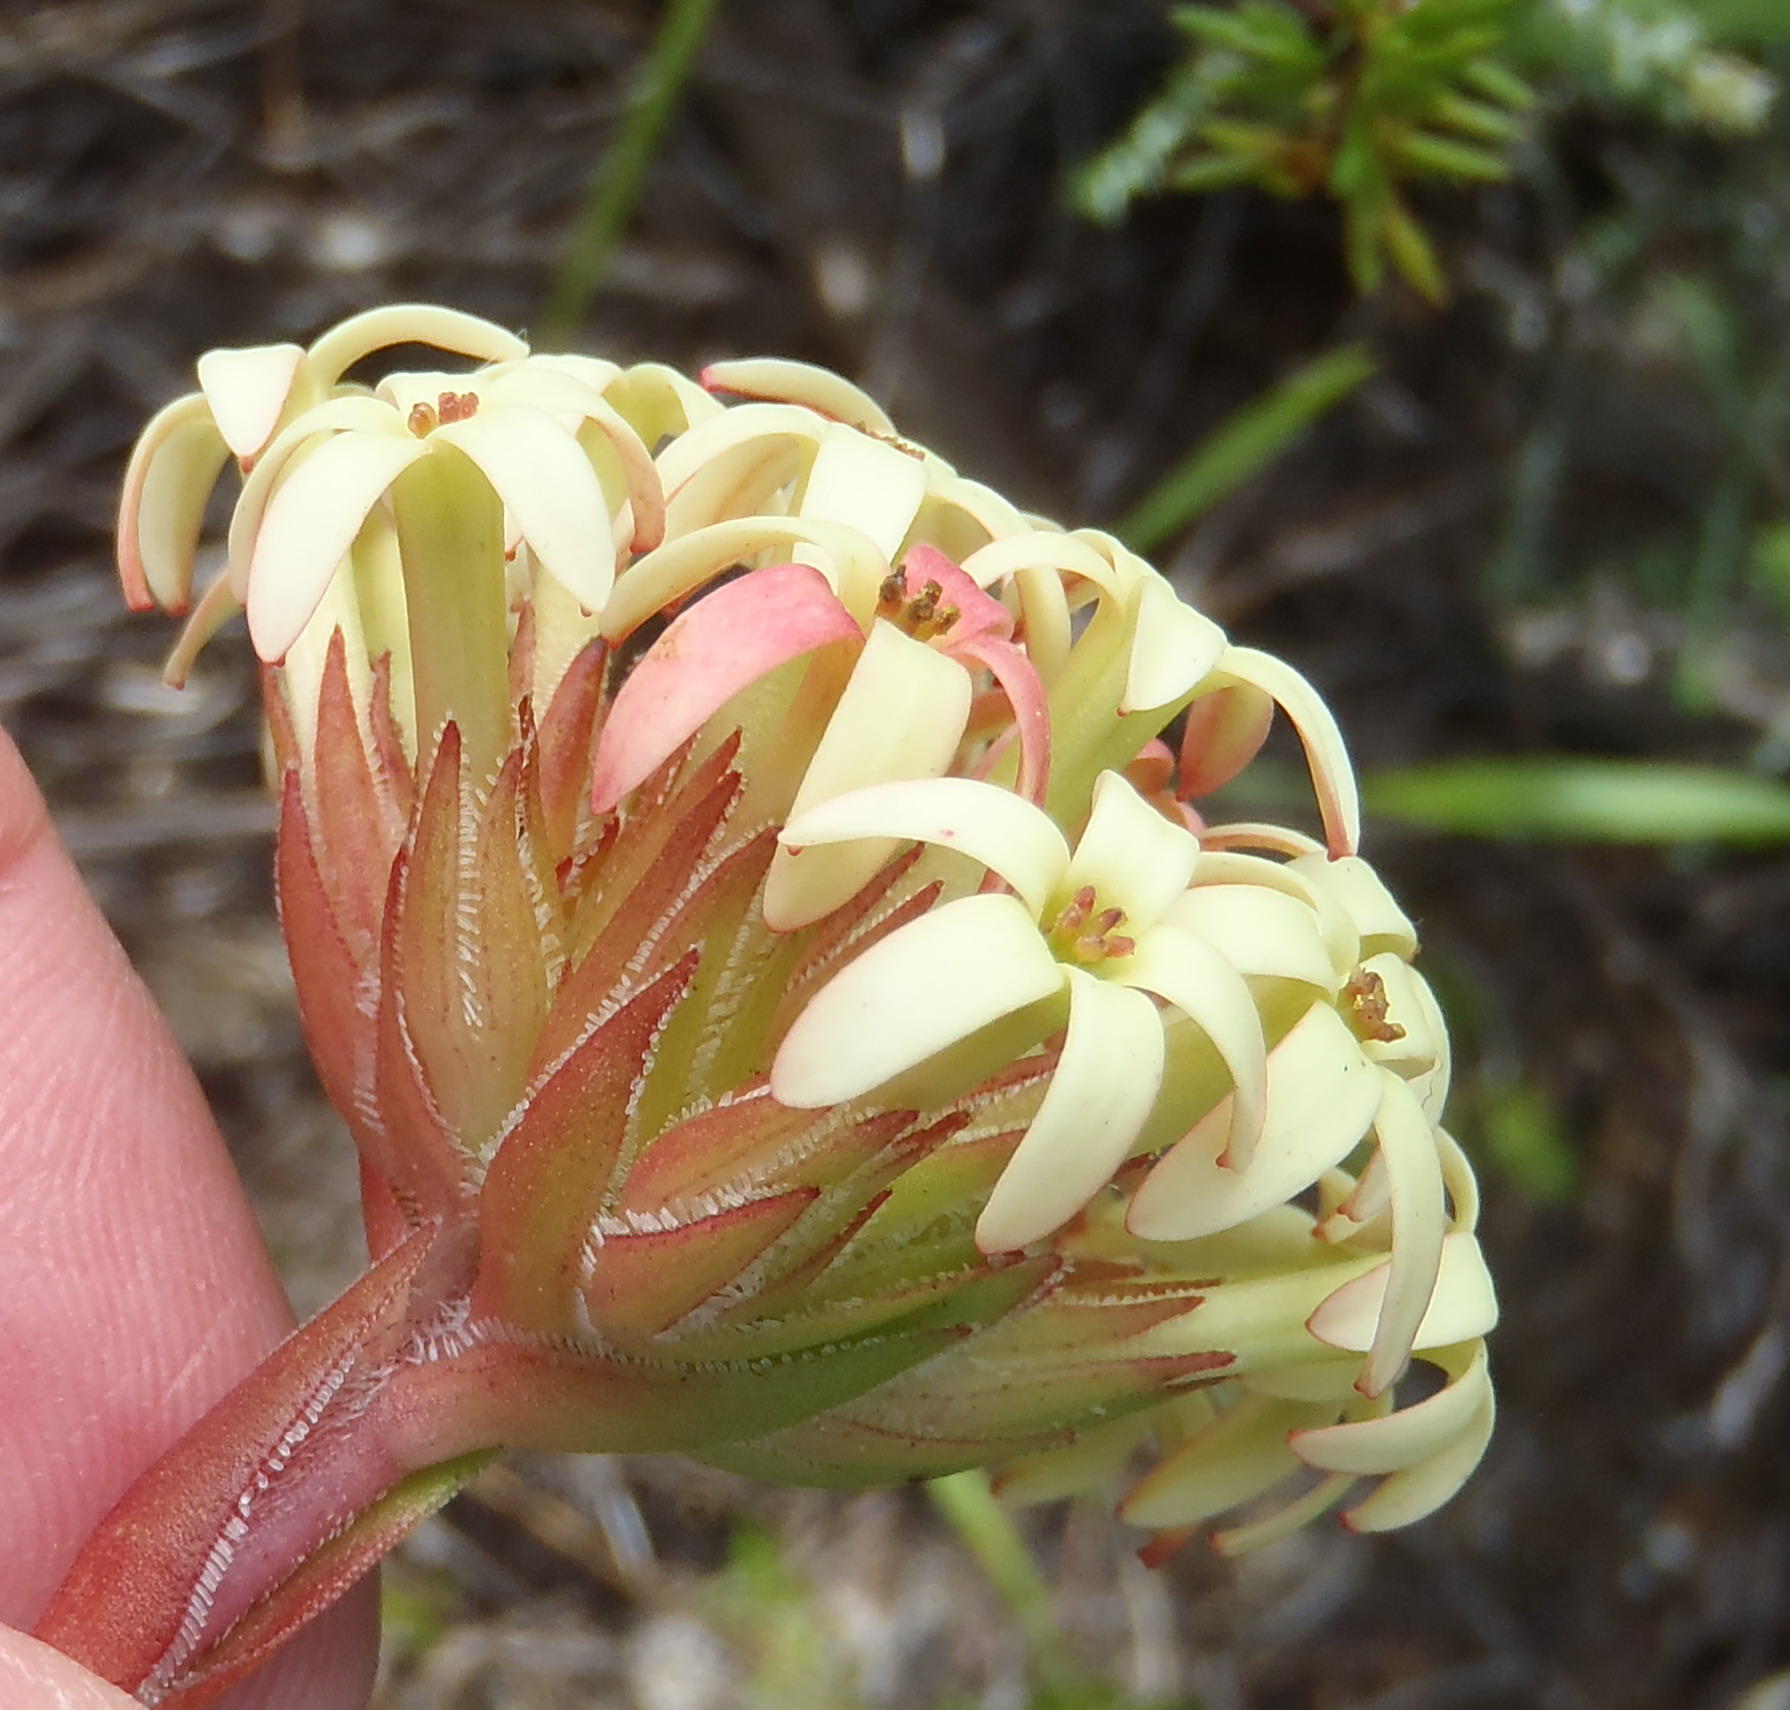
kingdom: Plantae
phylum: Tracheophyta
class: Magnoliopsida
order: Saxifragales
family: Crassulaceae
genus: Crassula
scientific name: Crassula fascicularis
